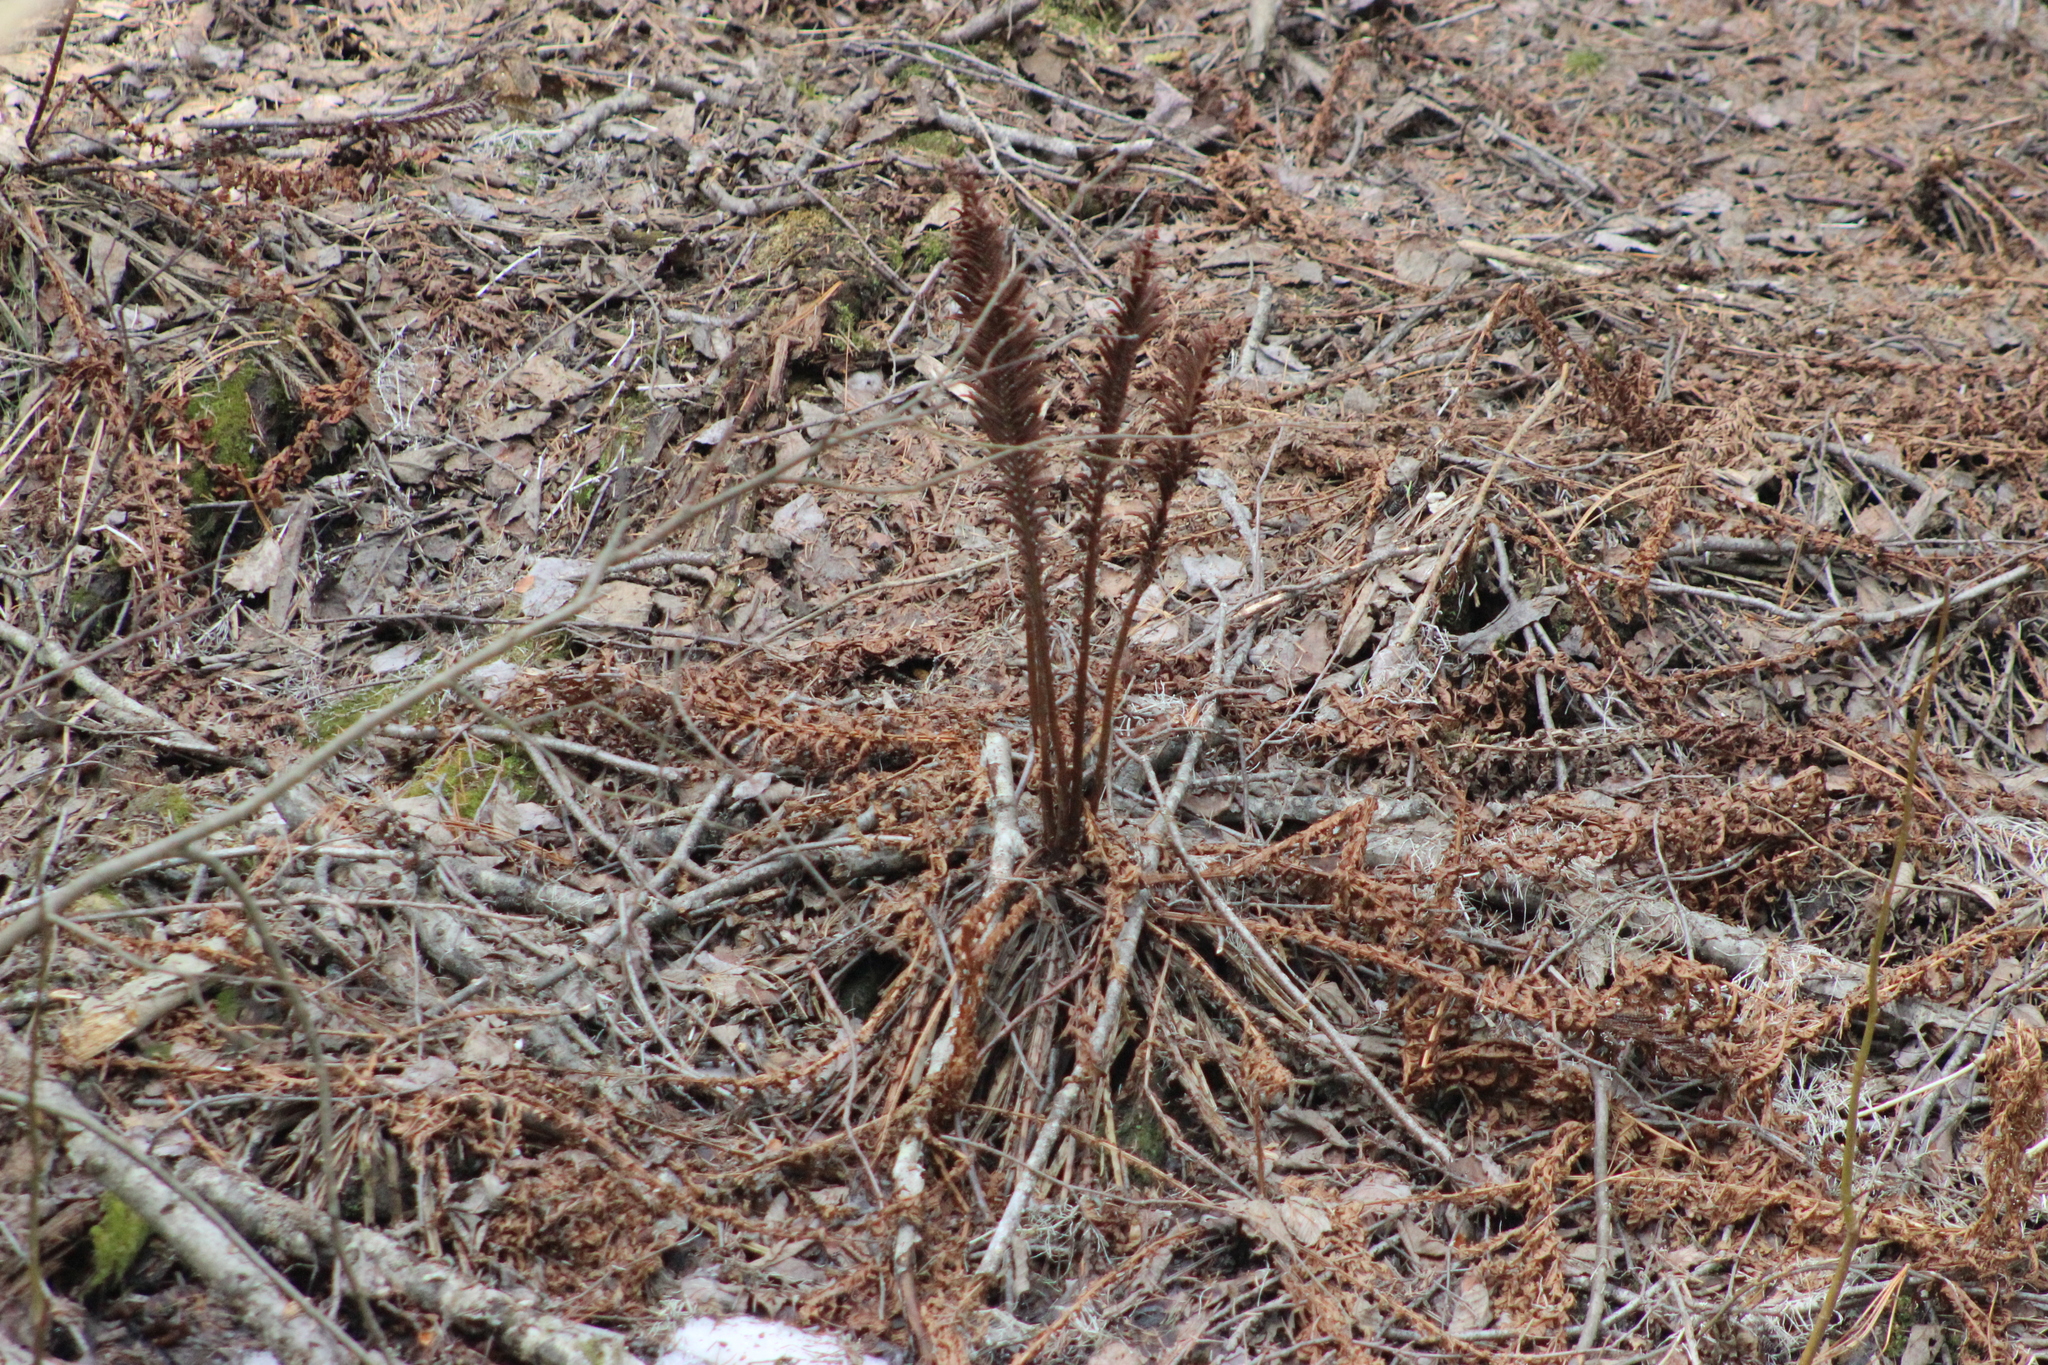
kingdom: Plantae
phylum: Tracheophyta
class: Polypodiopsida
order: Polypodiales
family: Onocleaceae
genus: Matteuccia
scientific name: Matteuccia struthiopteris
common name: Ostrich fern
